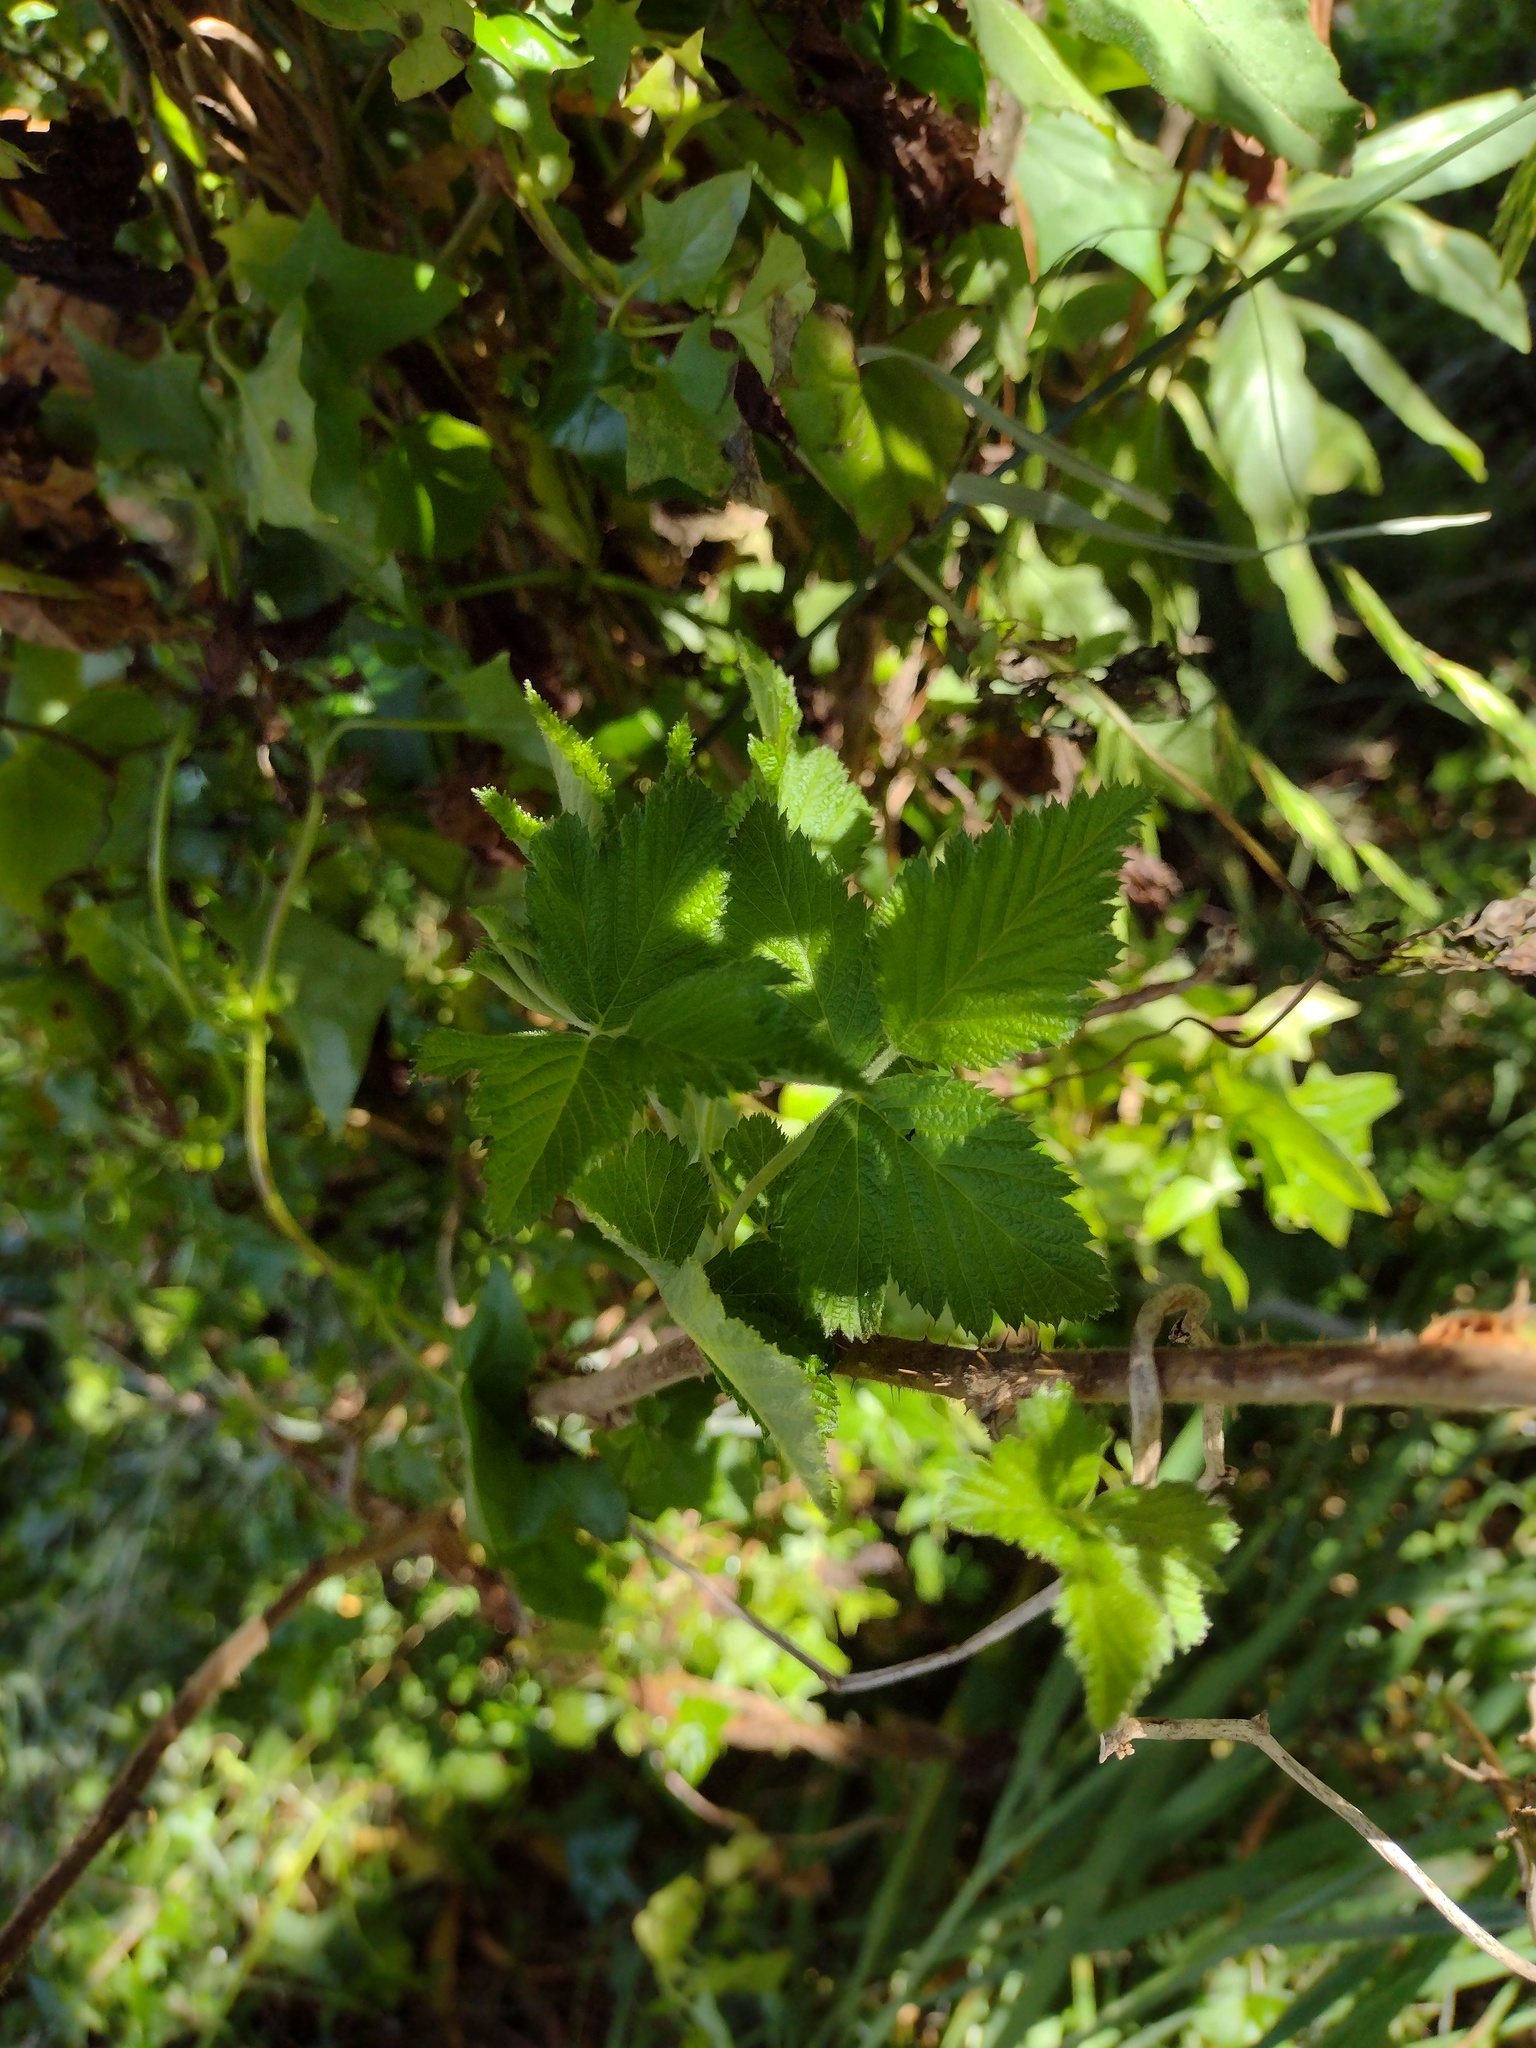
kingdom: Plantae
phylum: Tracheophyta
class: Magnoliopsida
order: Rosales
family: Rosaceae
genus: Rubus
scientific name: Rubus hawaiensis
